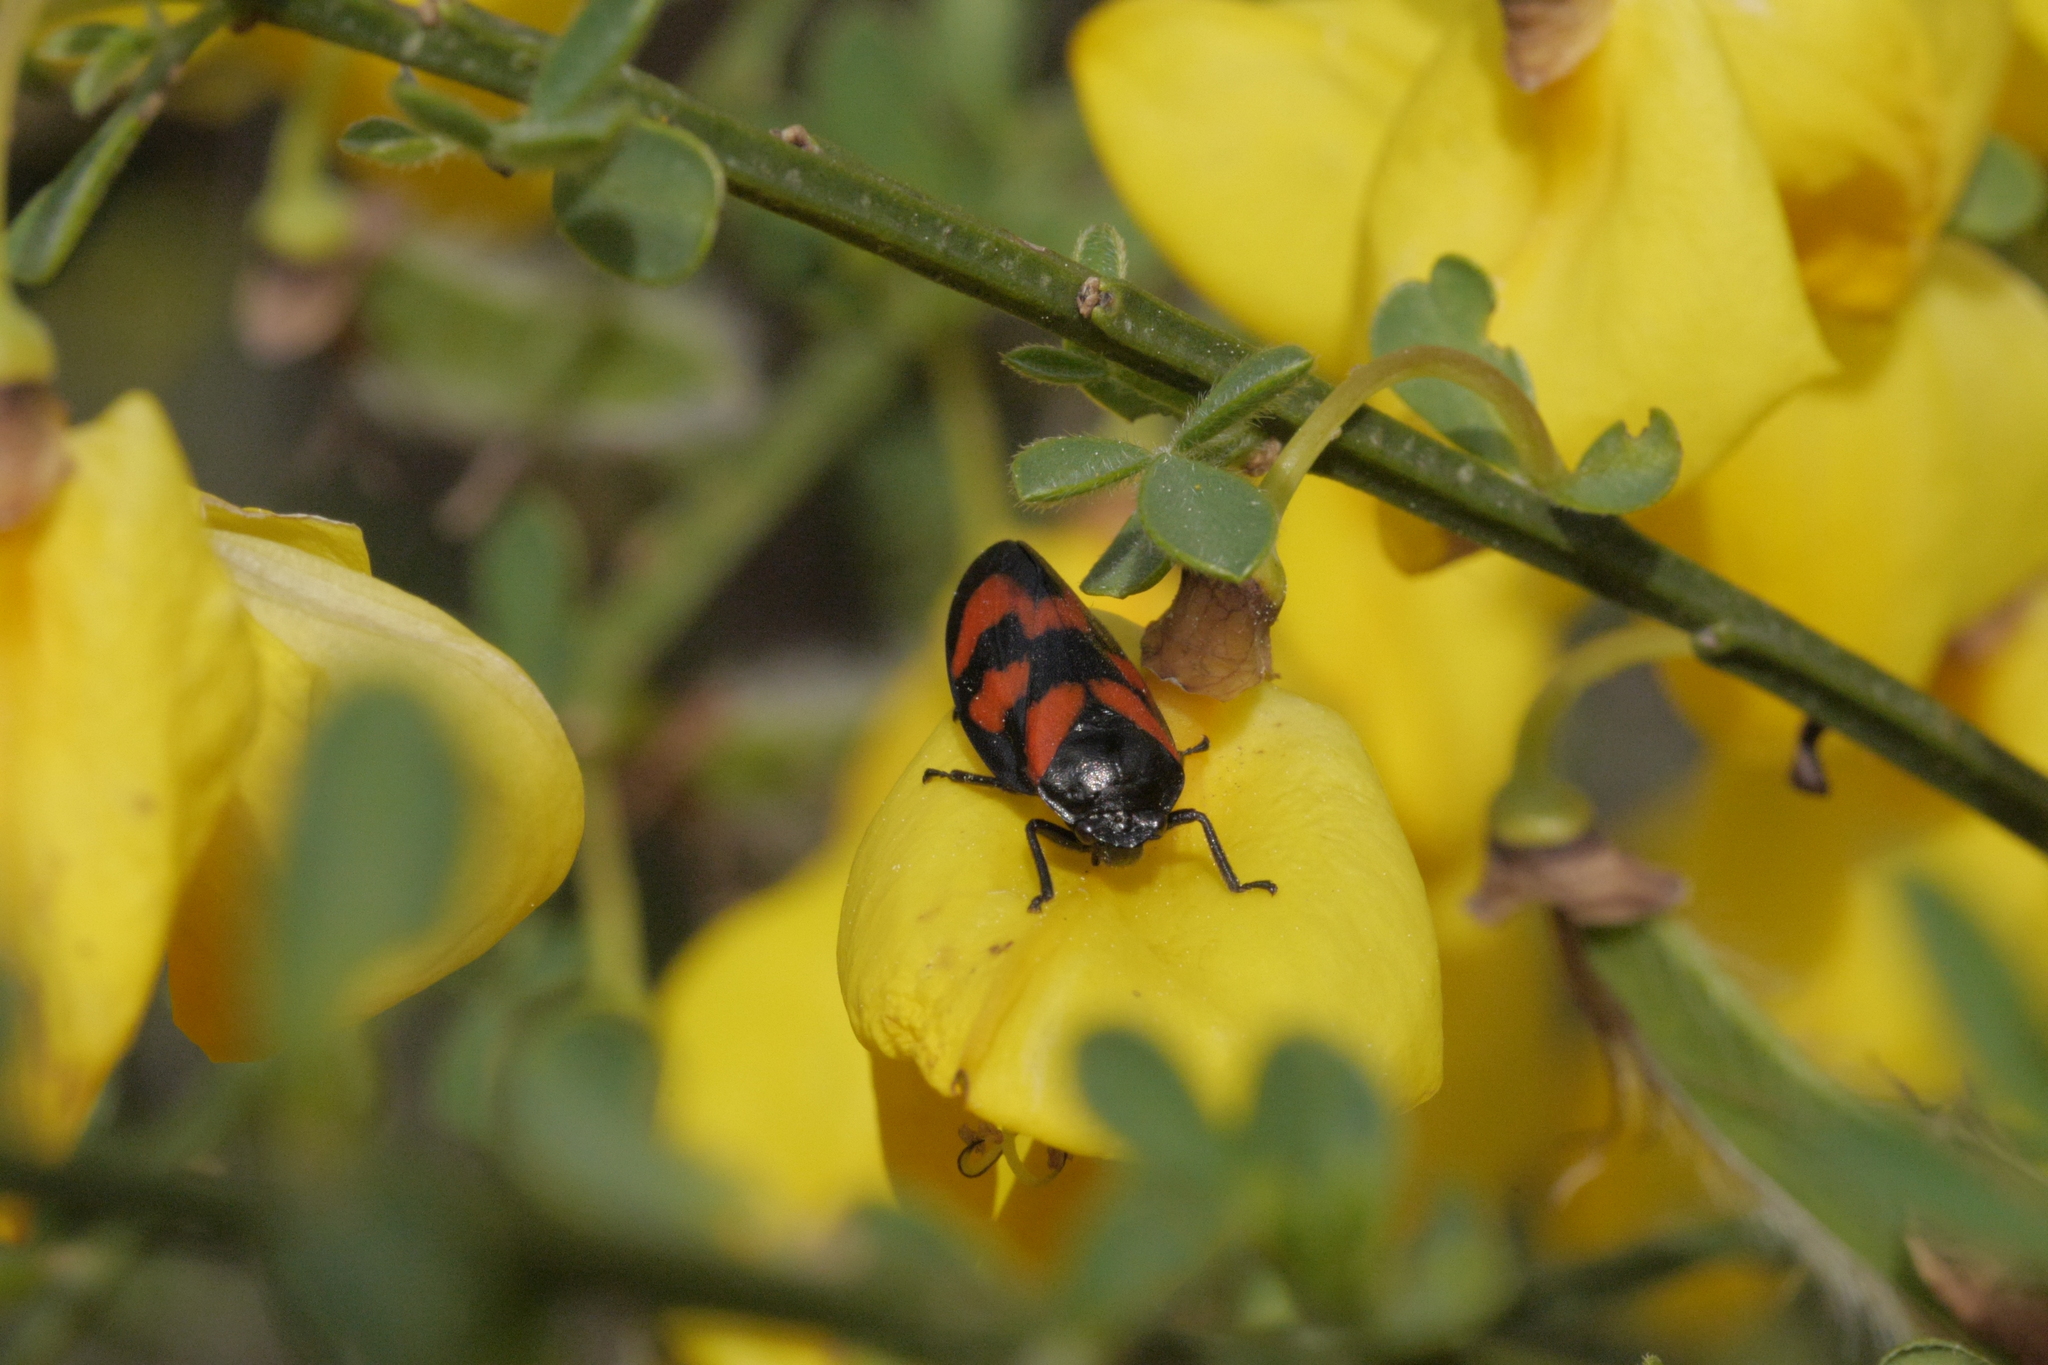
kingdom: Animalia
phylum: Arthropoda
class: Insecta
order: Hemiptera
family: Cercopidae
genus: Cercopis
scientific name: Cercopis vulnerata
